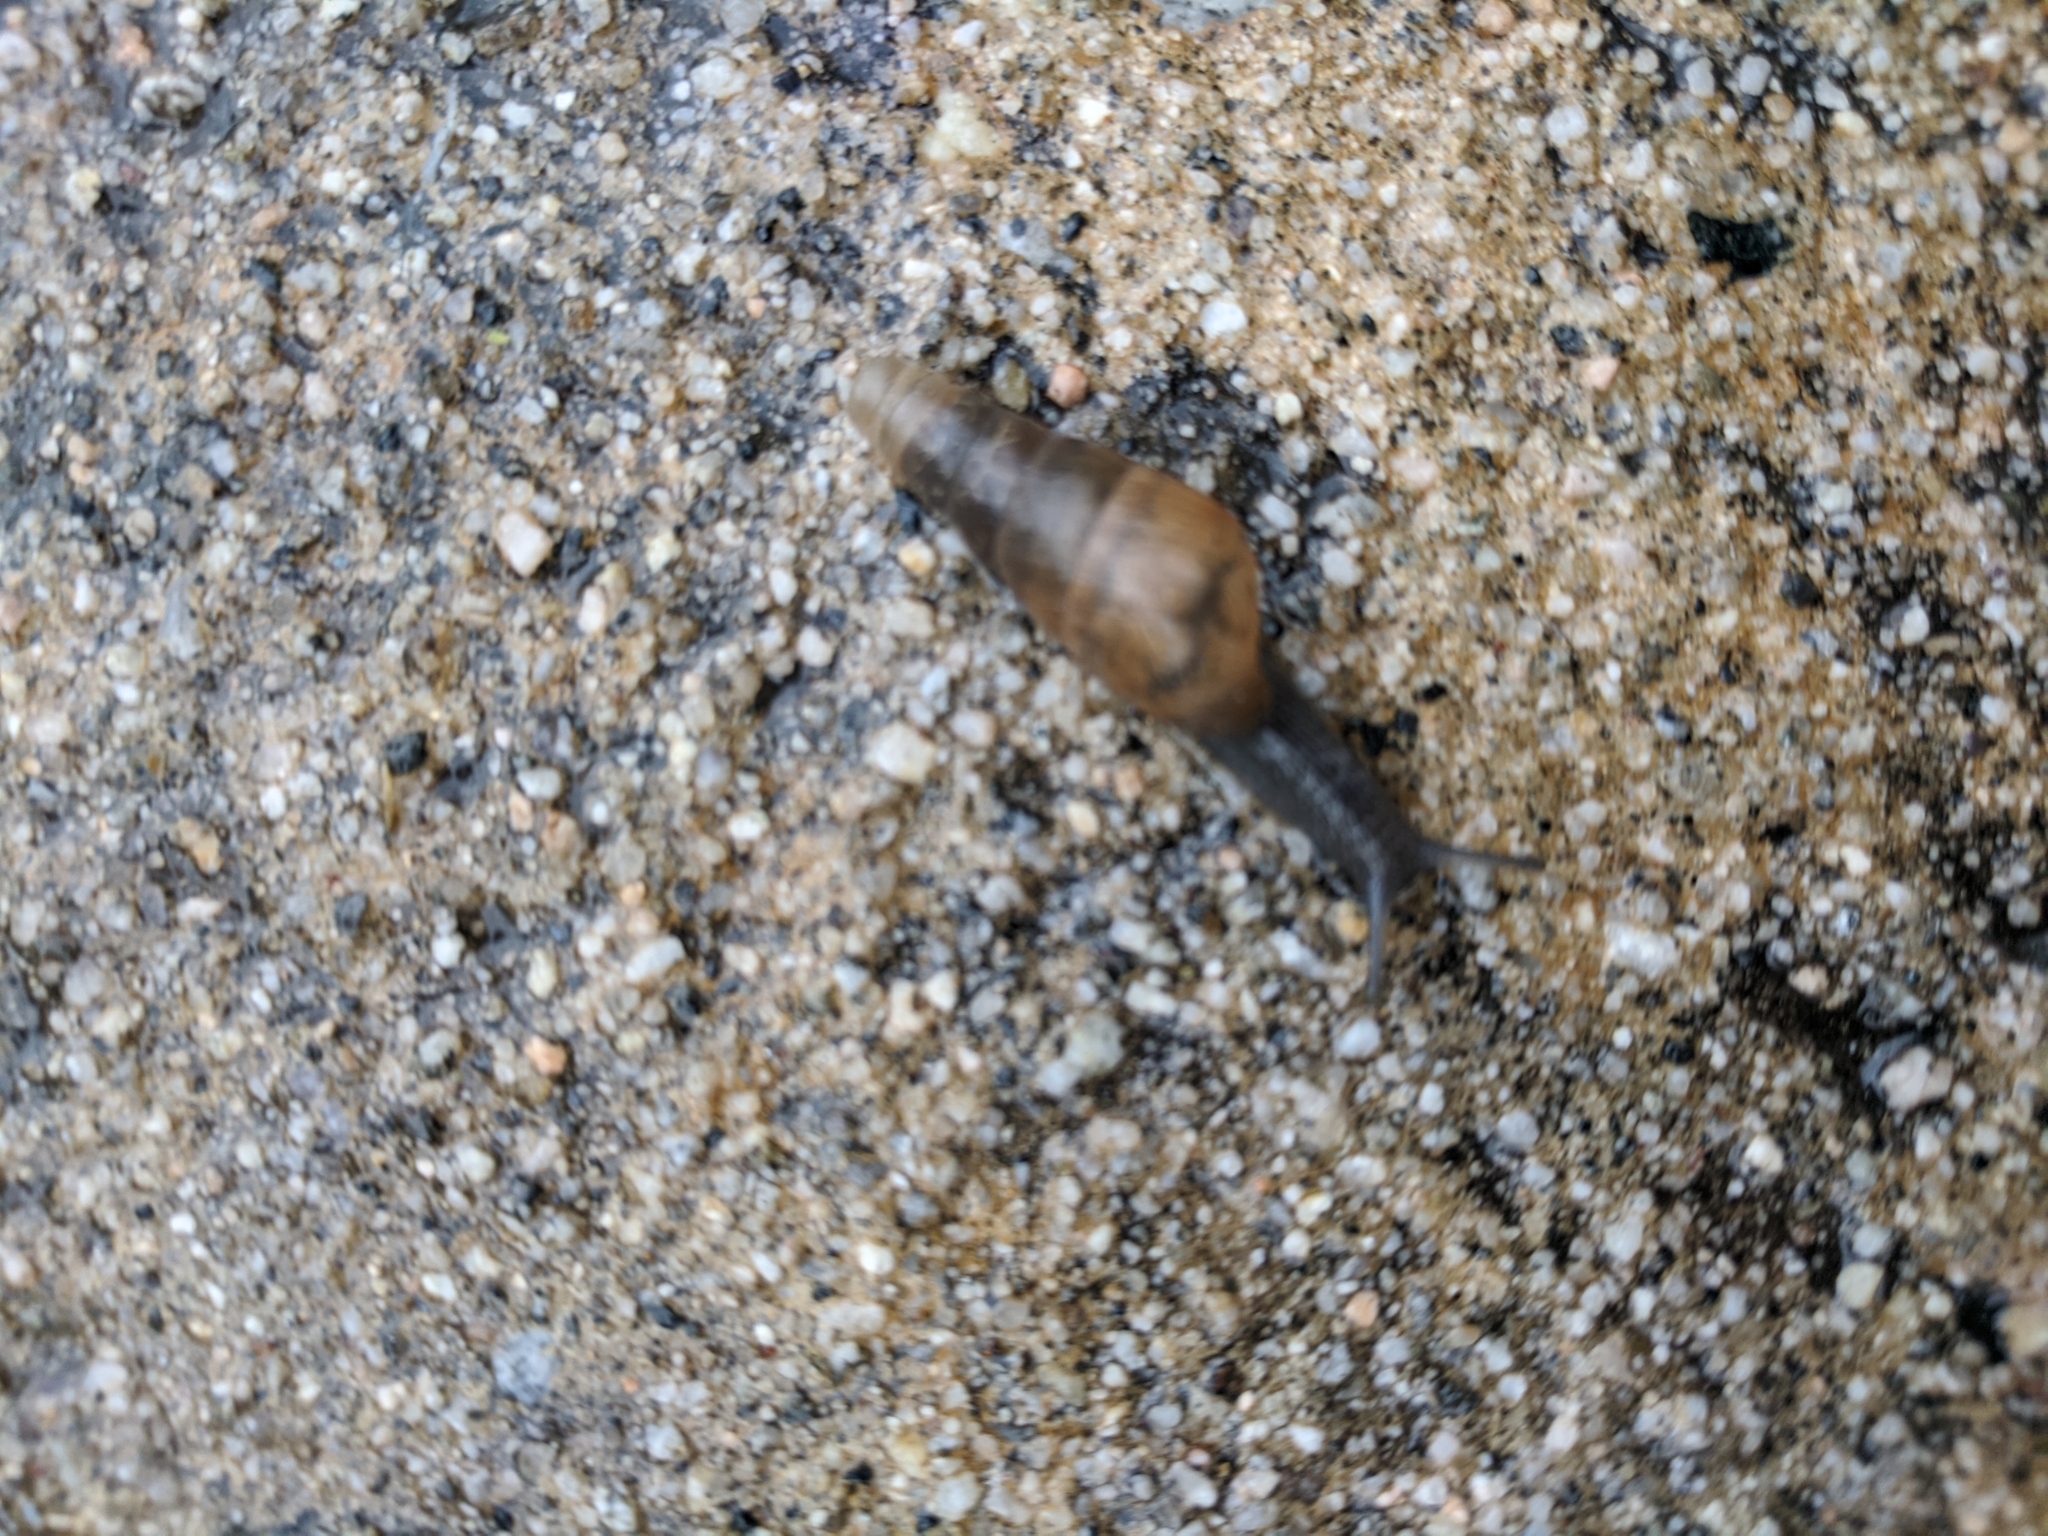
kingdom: Animalia
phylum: Mollusca
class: Gastropoda
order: Stylommatophora
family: Achatinidae
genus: Rumina
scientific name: Rumina decollata
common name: Decollate snail
